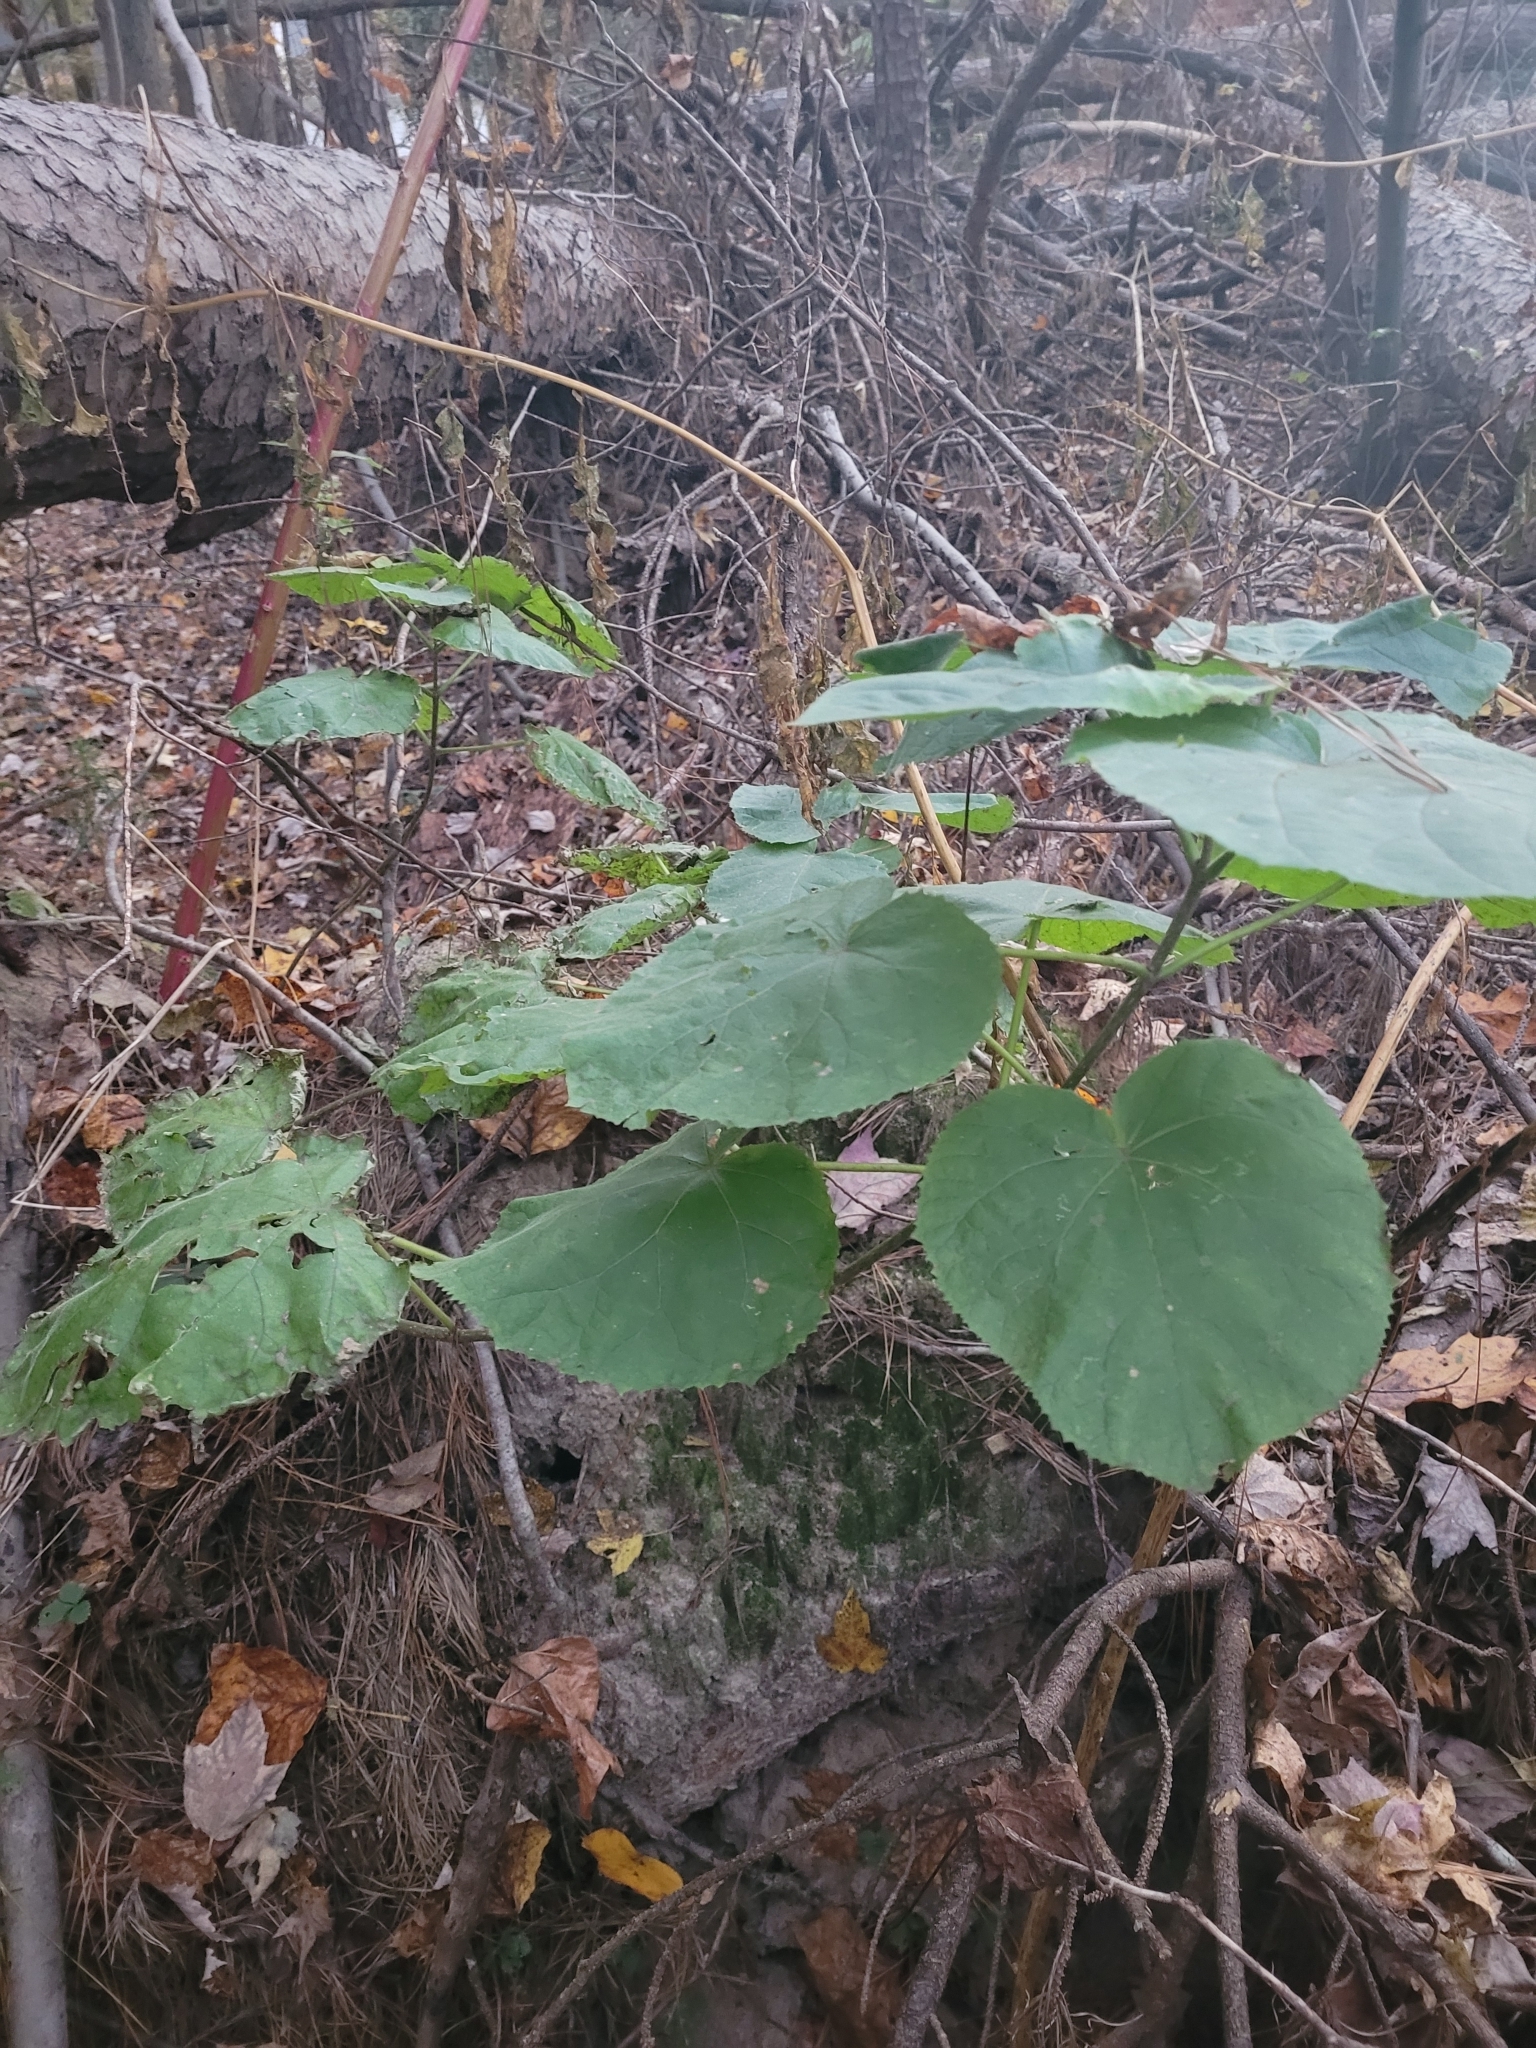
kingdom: Plantae
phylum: Tracheophyta
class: Magnoliopsida
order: Lamiales
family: Paulowniaceae
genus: Paulownia
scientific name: Paulownia tomentosa
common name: Foxglove-tree
